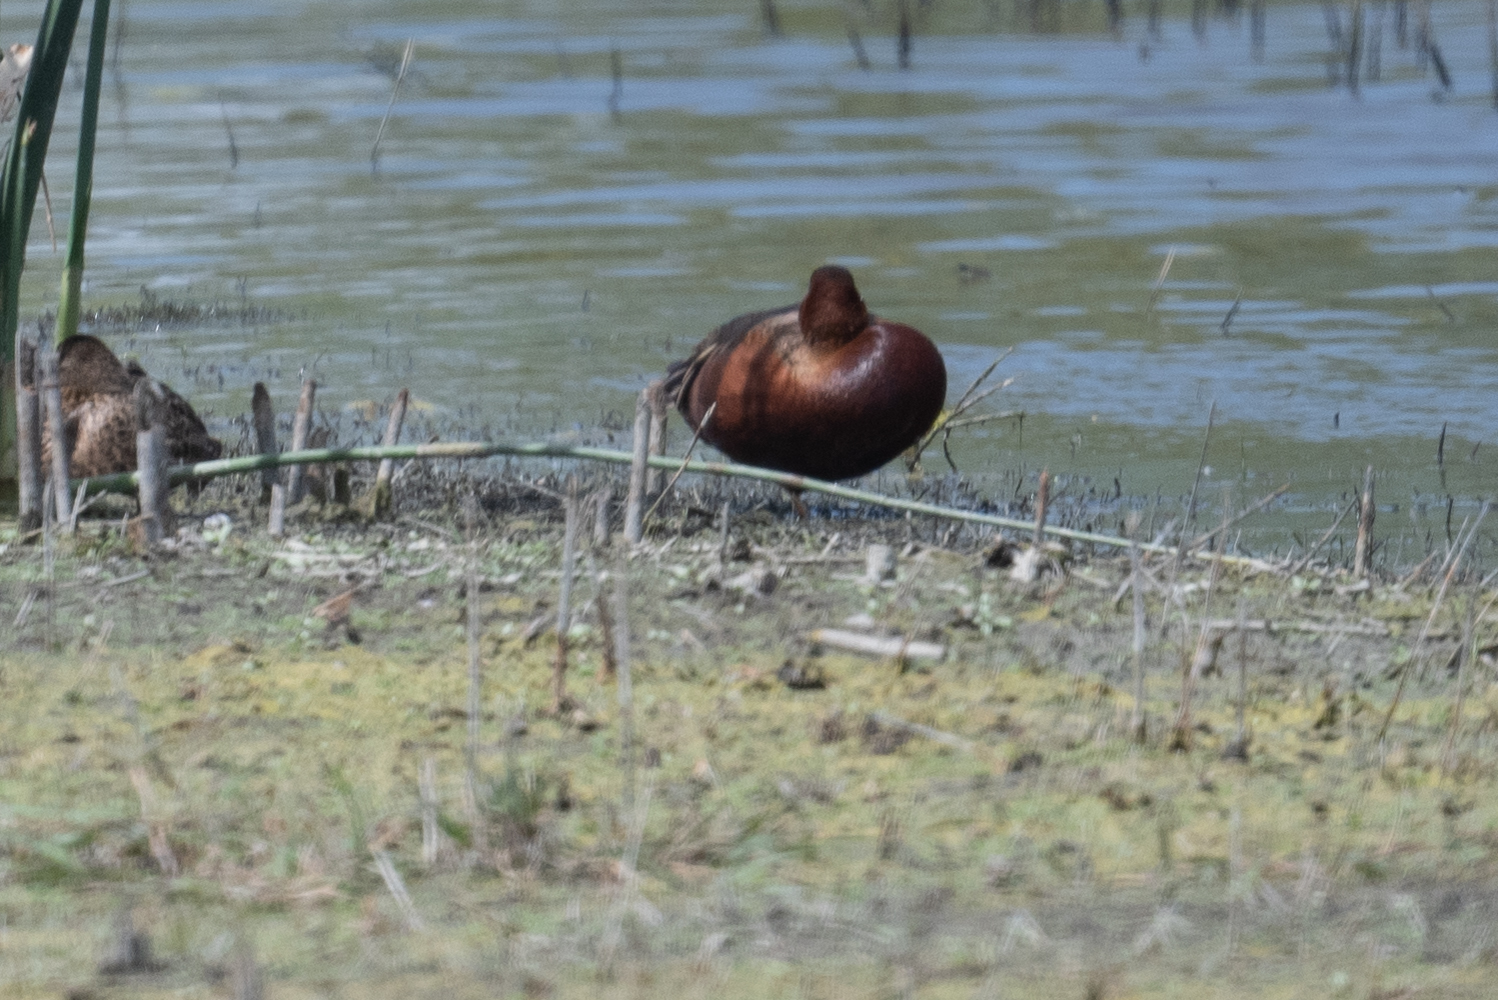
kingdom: Animalia
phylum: Chordata
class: Aves
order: Anseriformes
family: Anatidae
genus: Spatula
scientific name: Spatula cyanoptera
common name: Cinnamon teal
